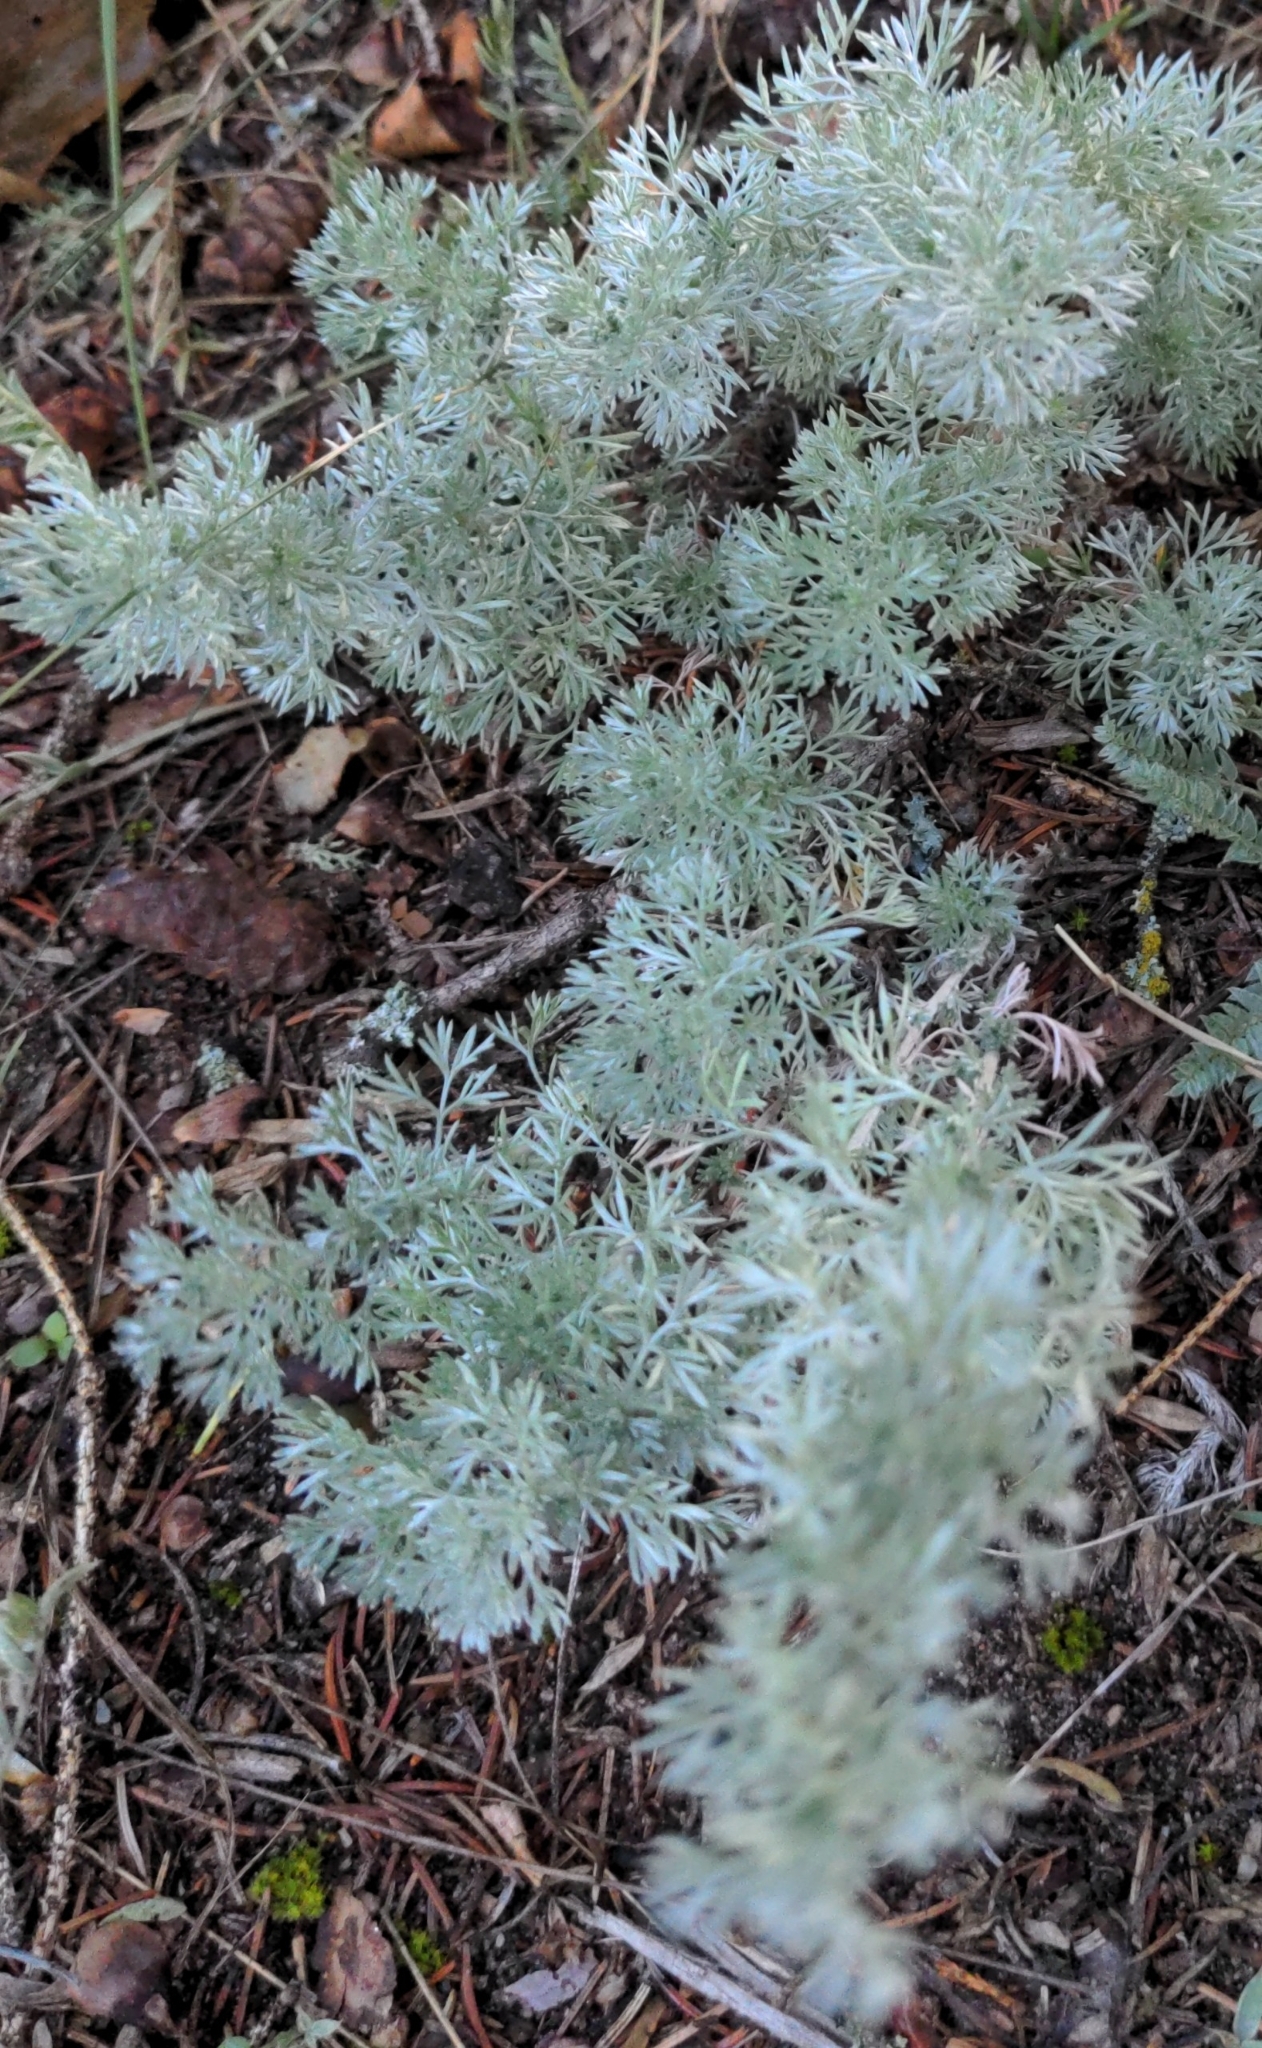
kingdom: Plantae
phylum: Tracheophyta
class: Magnoliopsida
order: Asterales
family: Asteraceae
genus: Artemisia
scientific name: Artemisia frigida
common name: Prairie sagewort
